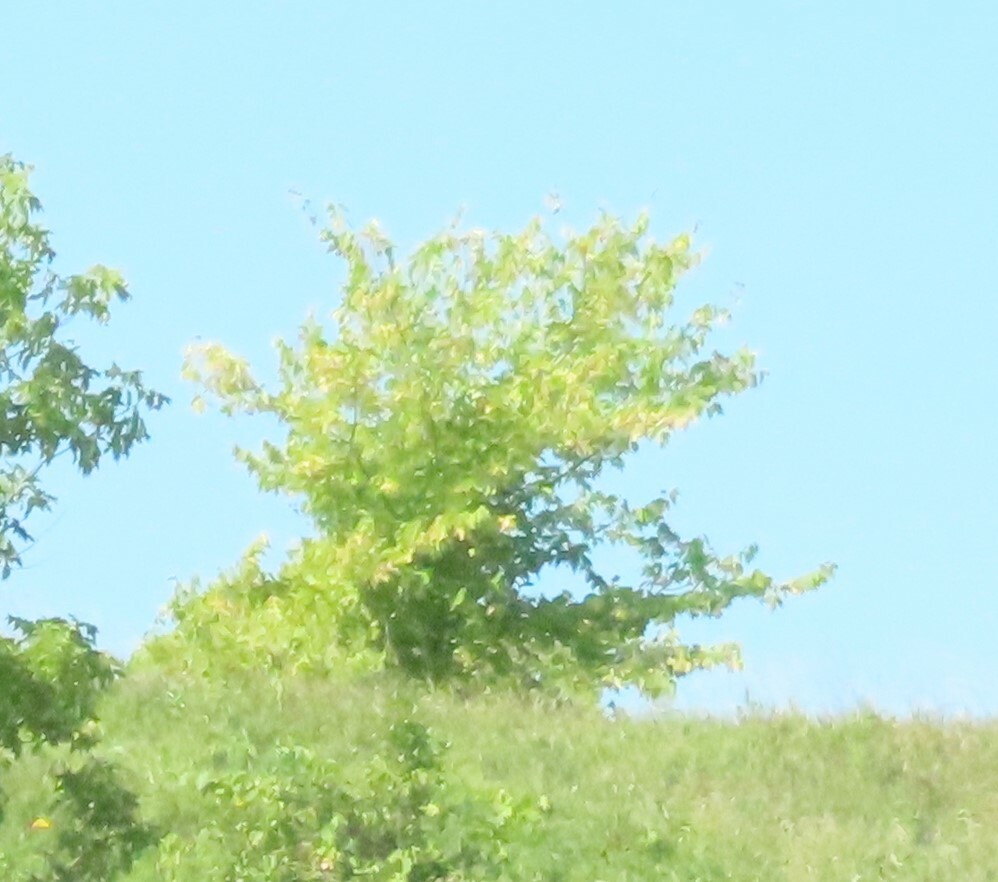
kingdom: Plantae
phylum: Tracheophyta
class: Magnoliopsida
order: Sapindales
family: Sapindaceae
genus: Acer
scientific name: Acer negundo
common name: Ashleaf maple
